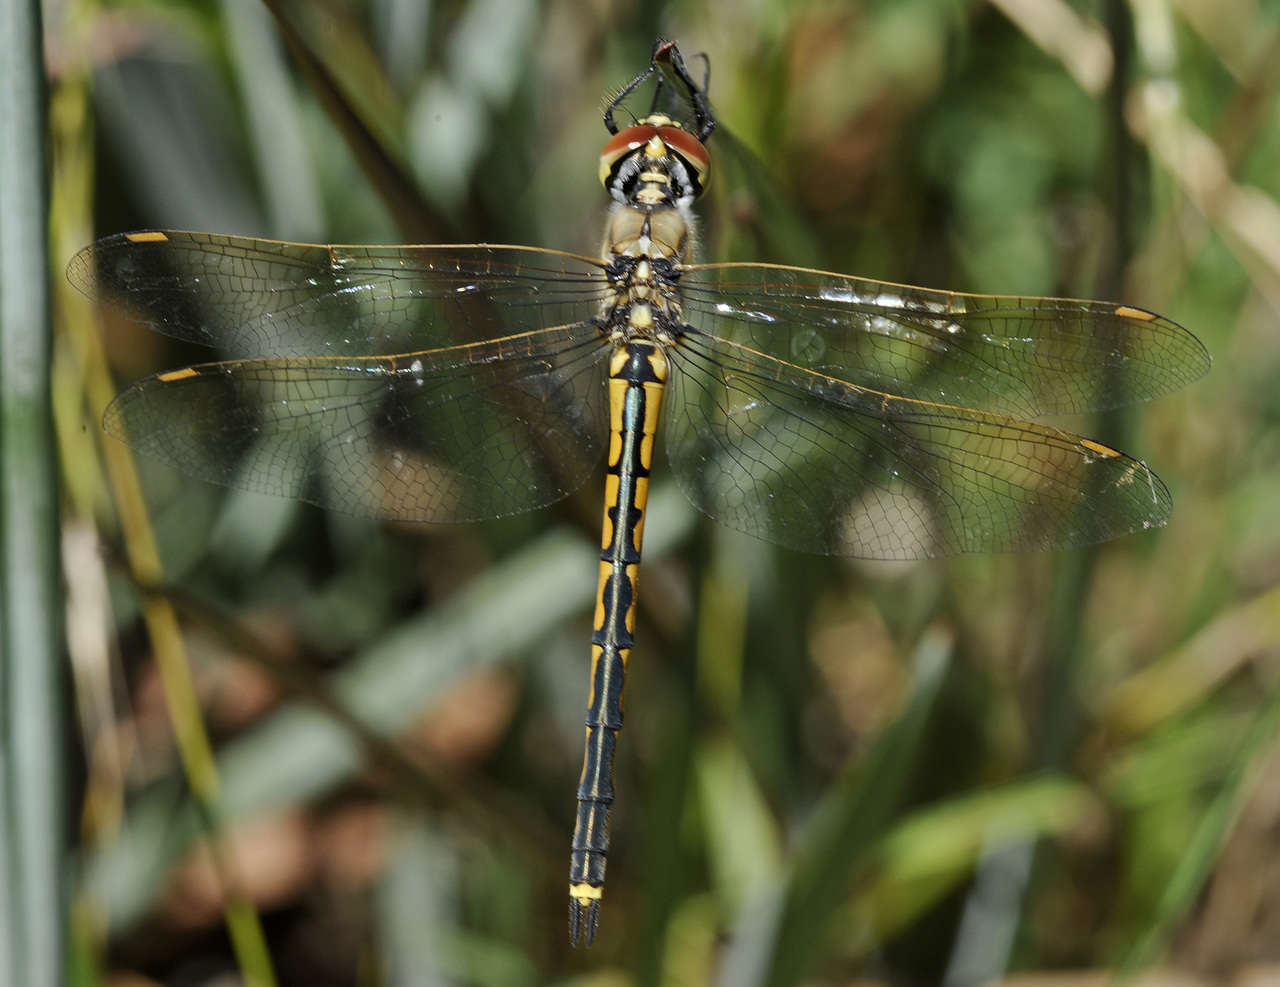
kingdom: Animalia
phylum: Arthropoda
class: Insecta
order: Odonata
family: Corduliidae
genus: Hemicordulia
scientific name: Hemicordulia tau
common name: Tau emerald
